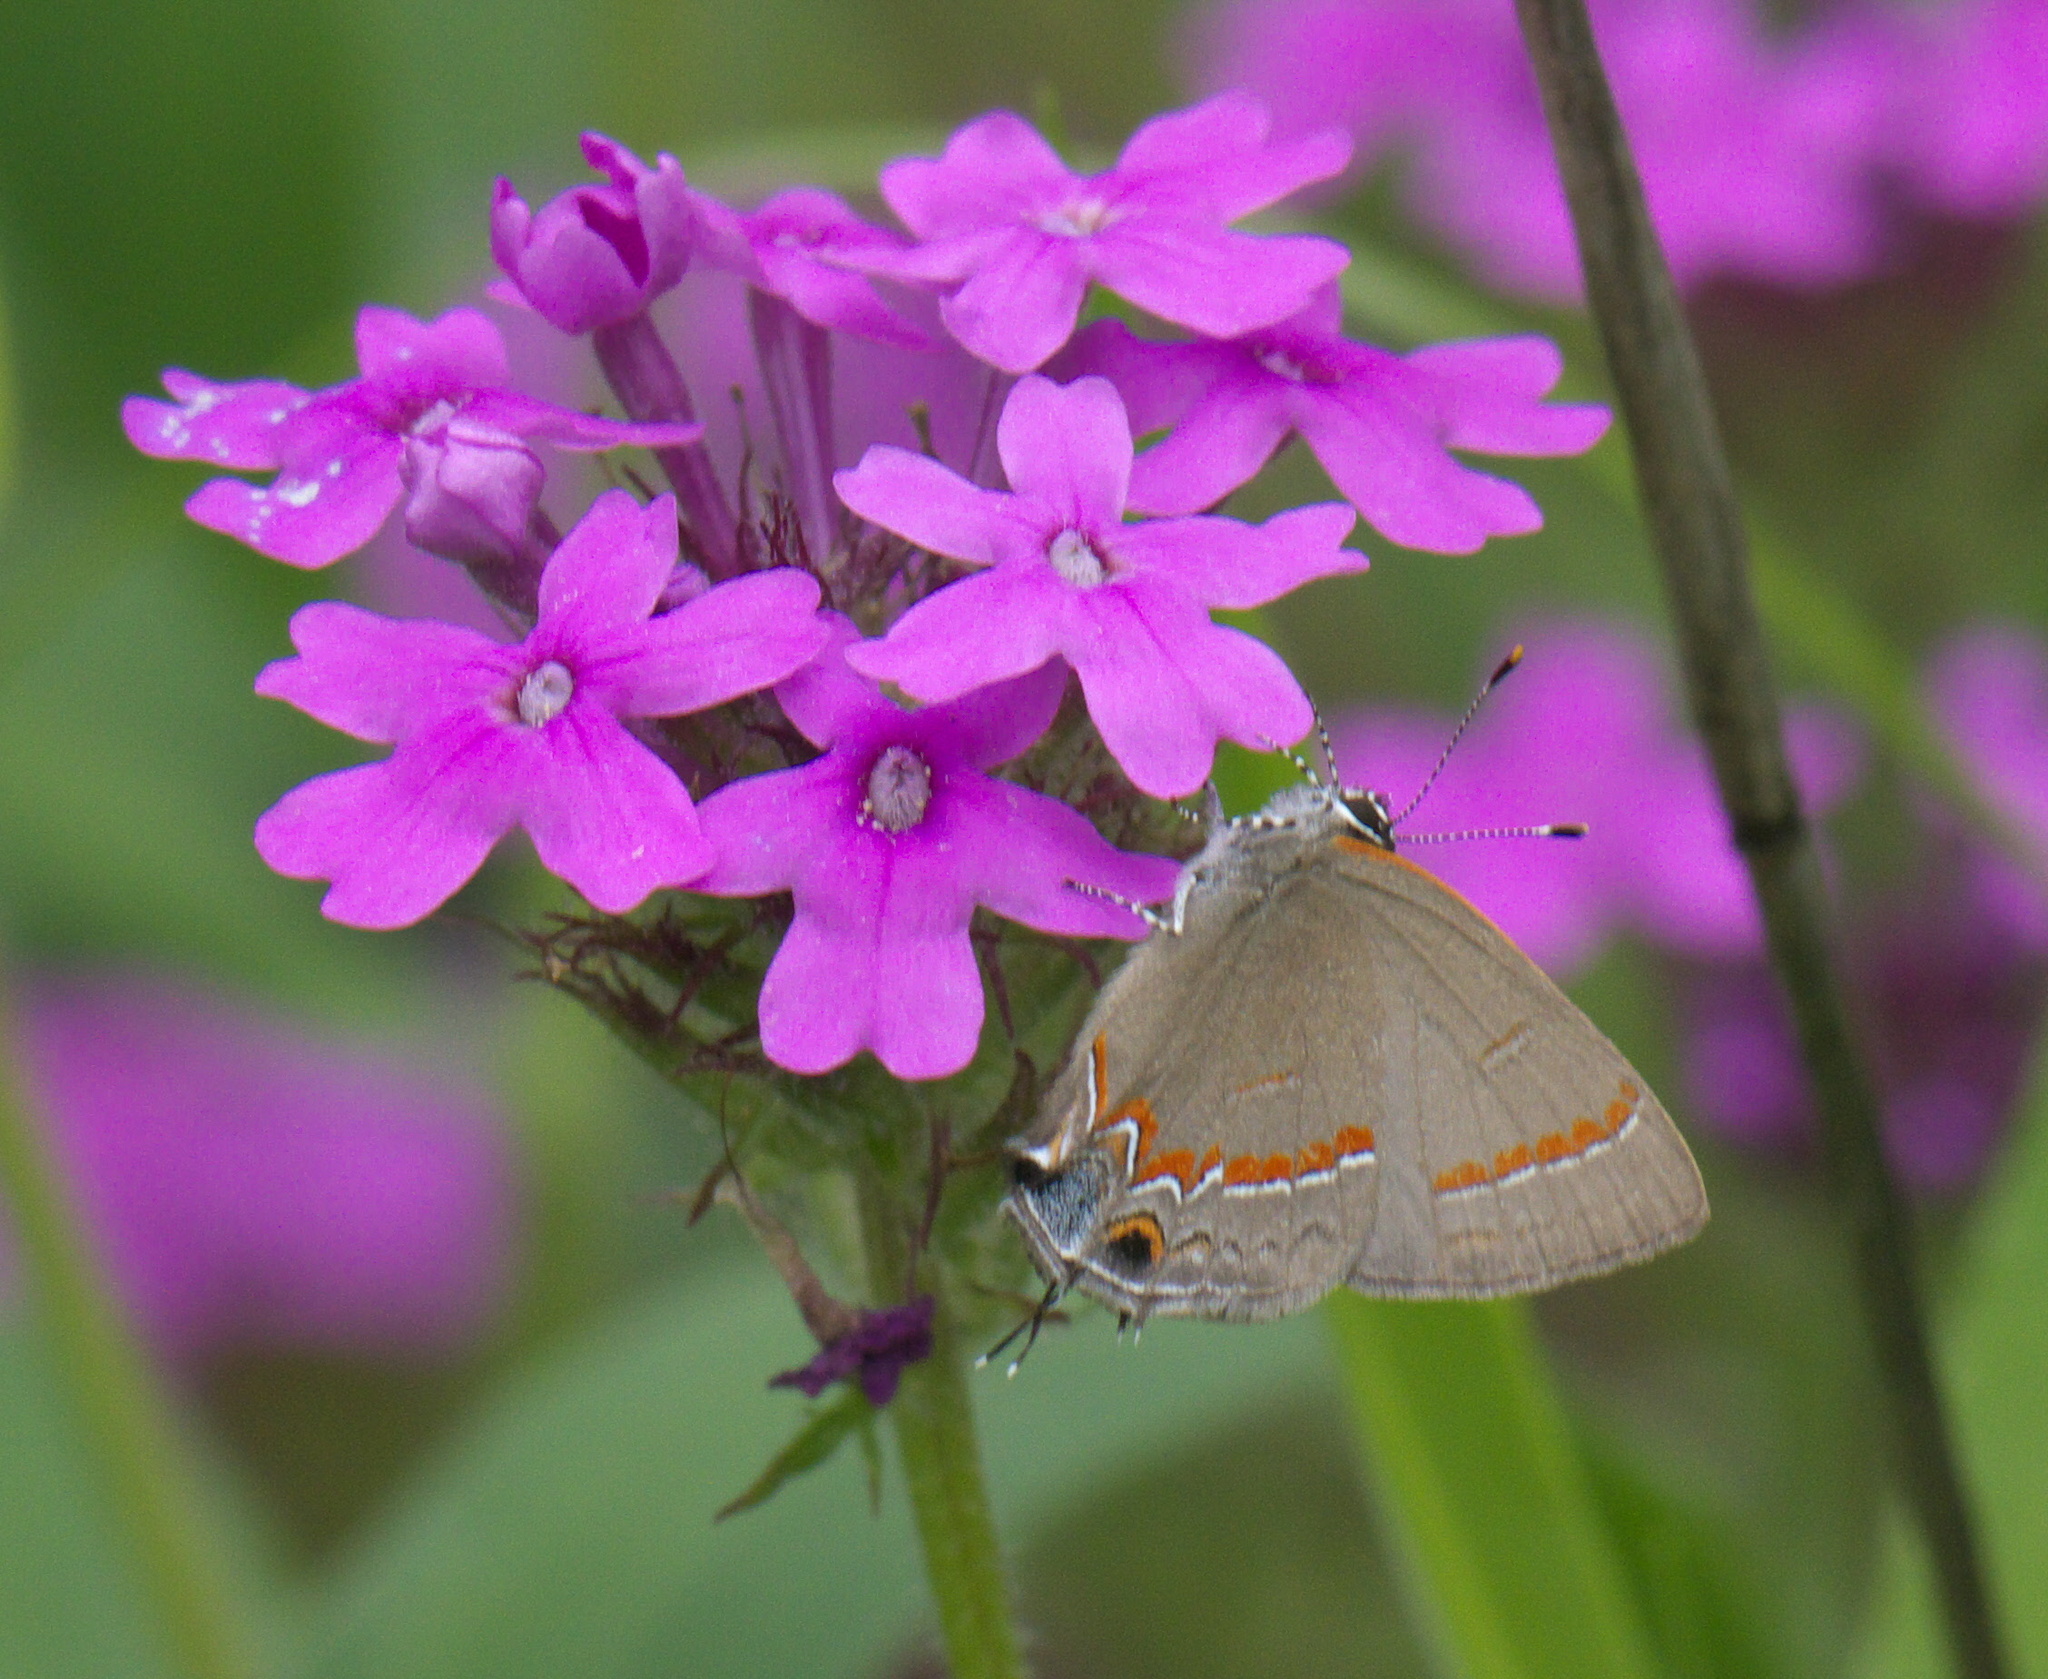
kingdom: Animalia
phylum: Arthropoda
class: Insecta
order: Lepidoptera
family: Lycaenidae
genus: Calycopis
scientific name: Calycopis cecrops
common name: Red-banded hairstreak
